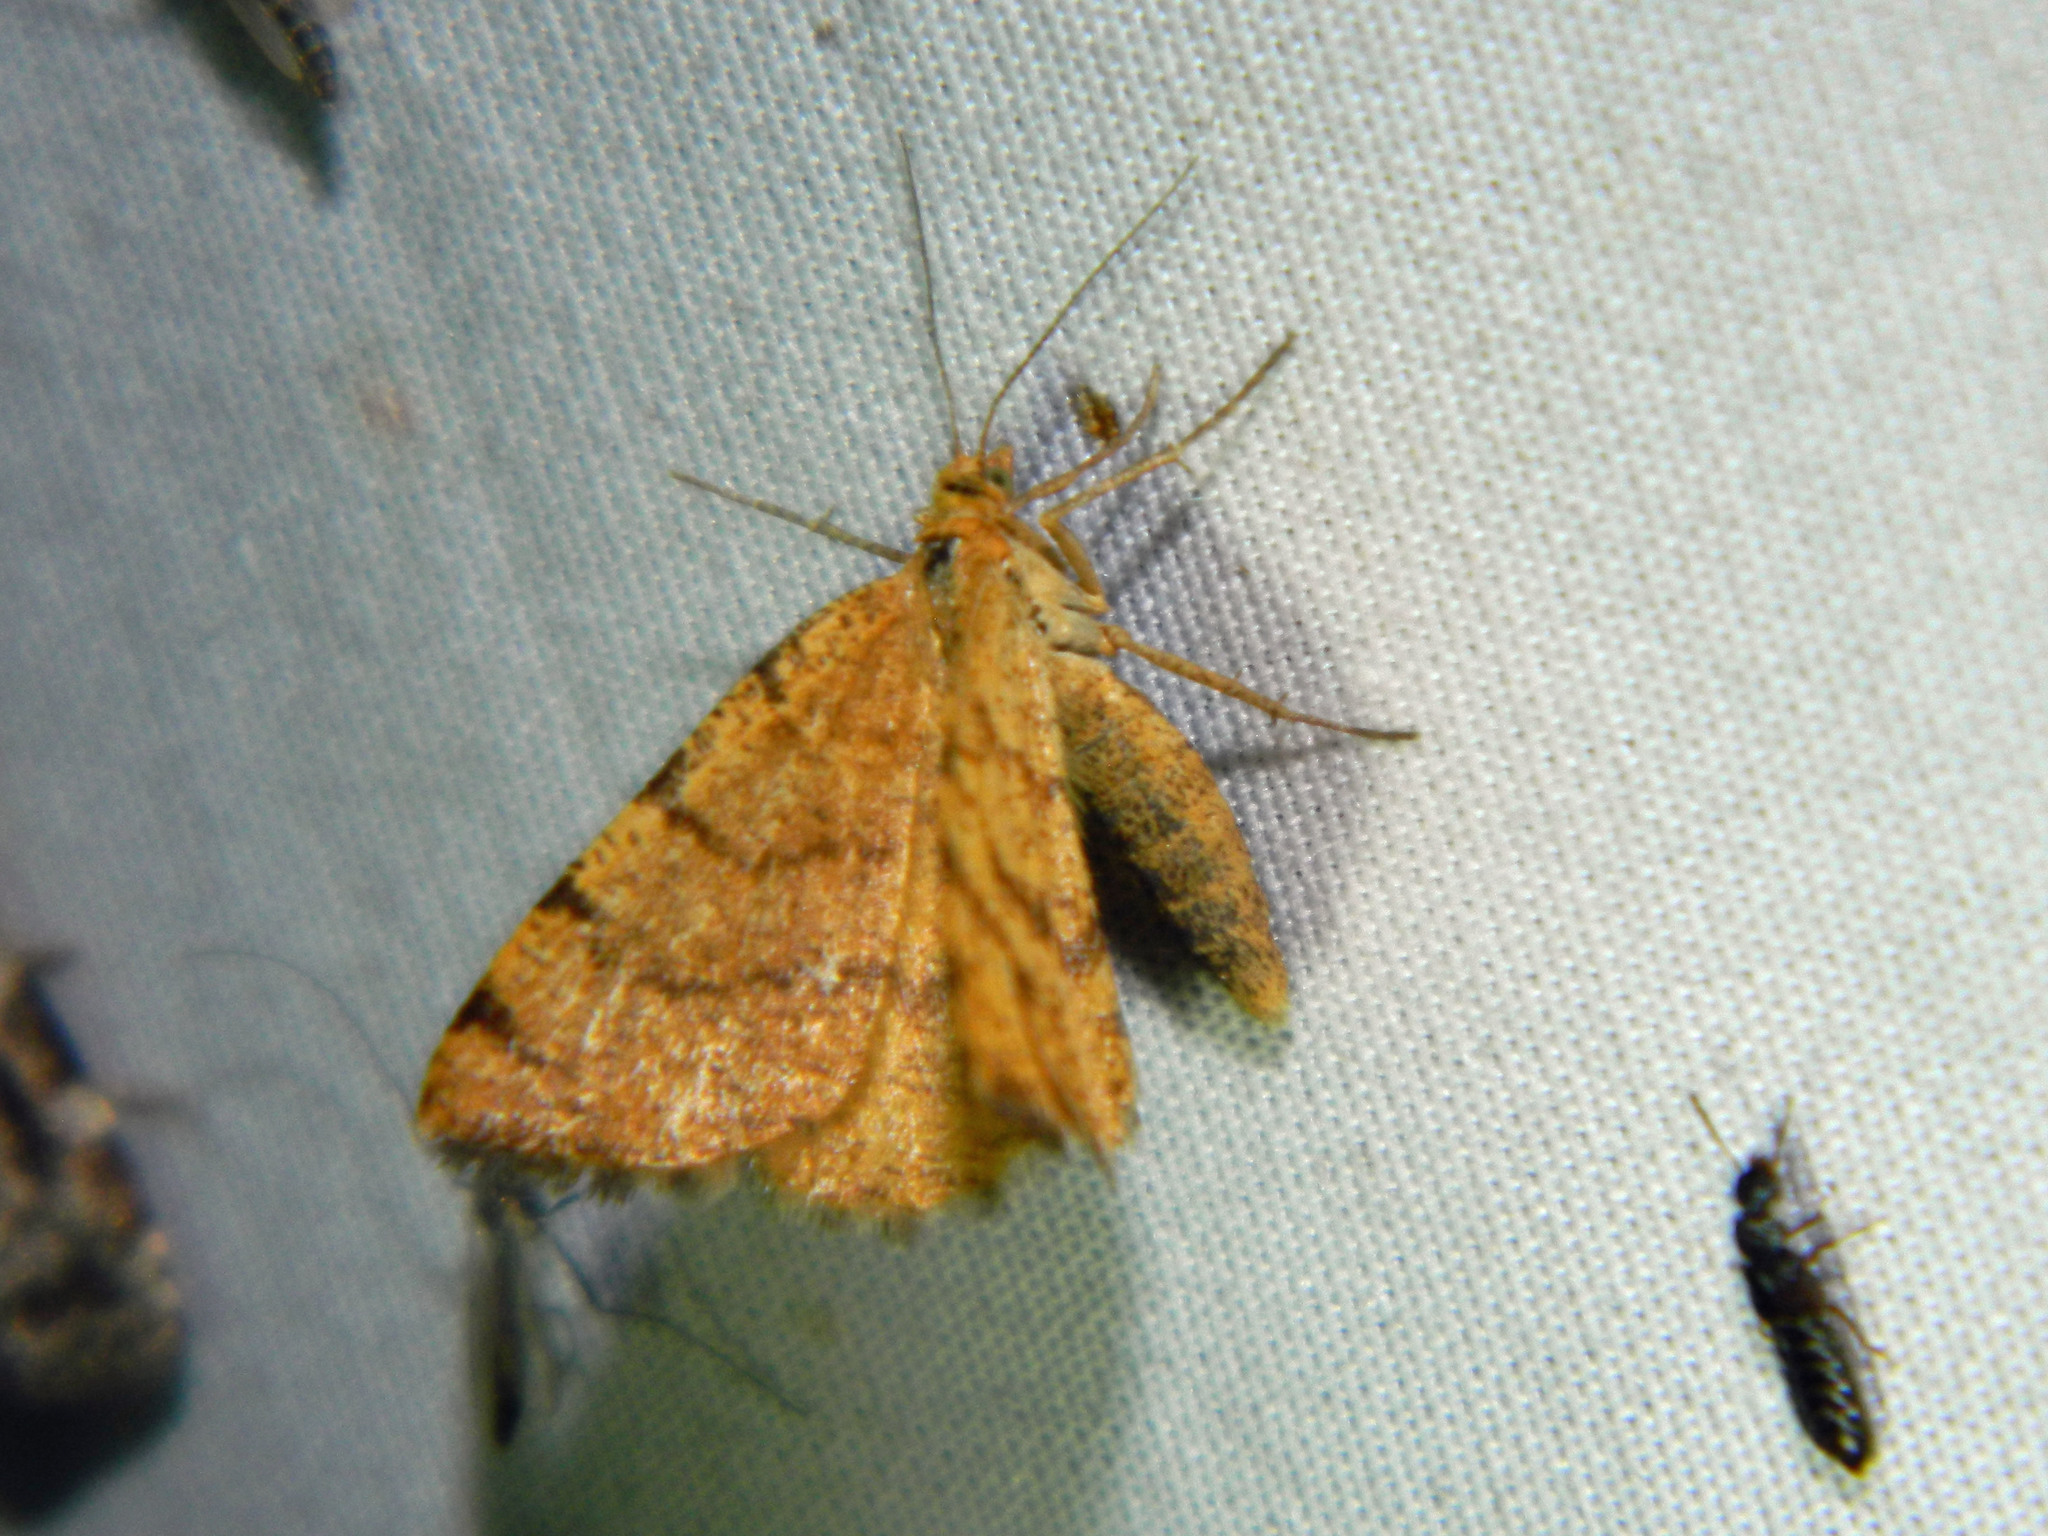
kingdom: Animalia
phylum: Arthropoda
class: Insecta
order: Lepidoptera
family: Geometridae
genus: Macaria
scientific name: Macaria brunneata
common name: Rannoch looper
